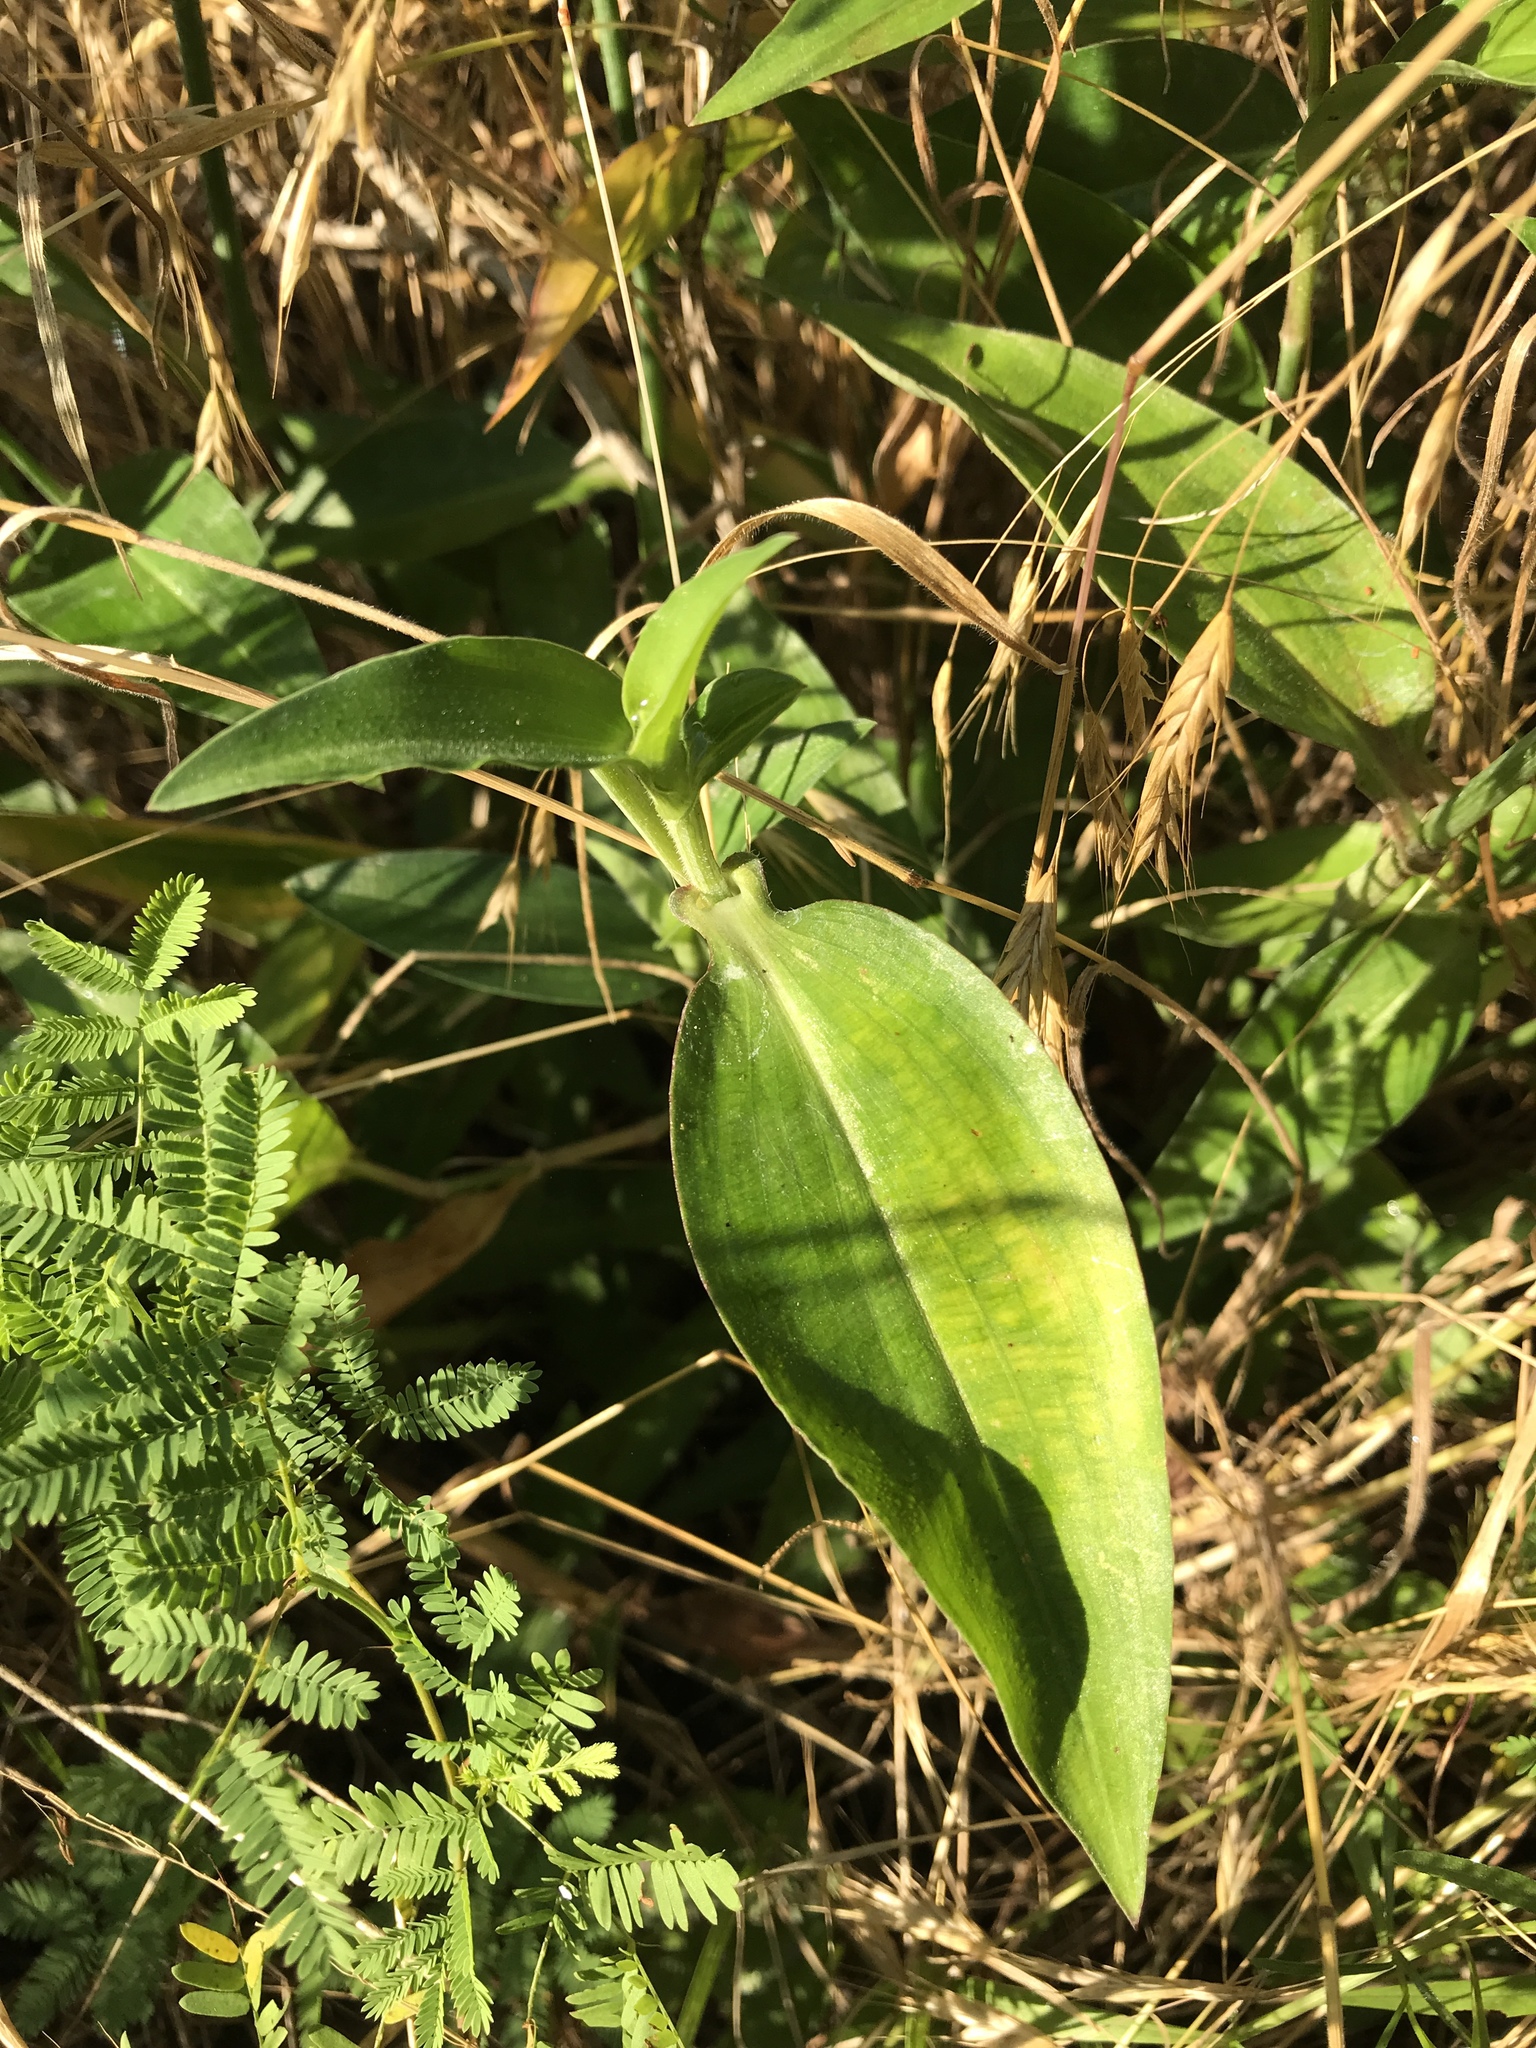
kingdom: Plantae
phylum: Tracheophyta
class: Liliopsida
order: Commelinales
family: Commelinaceae
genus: Commelina
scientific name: Commelina erecta
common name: Blousel blommetjie
